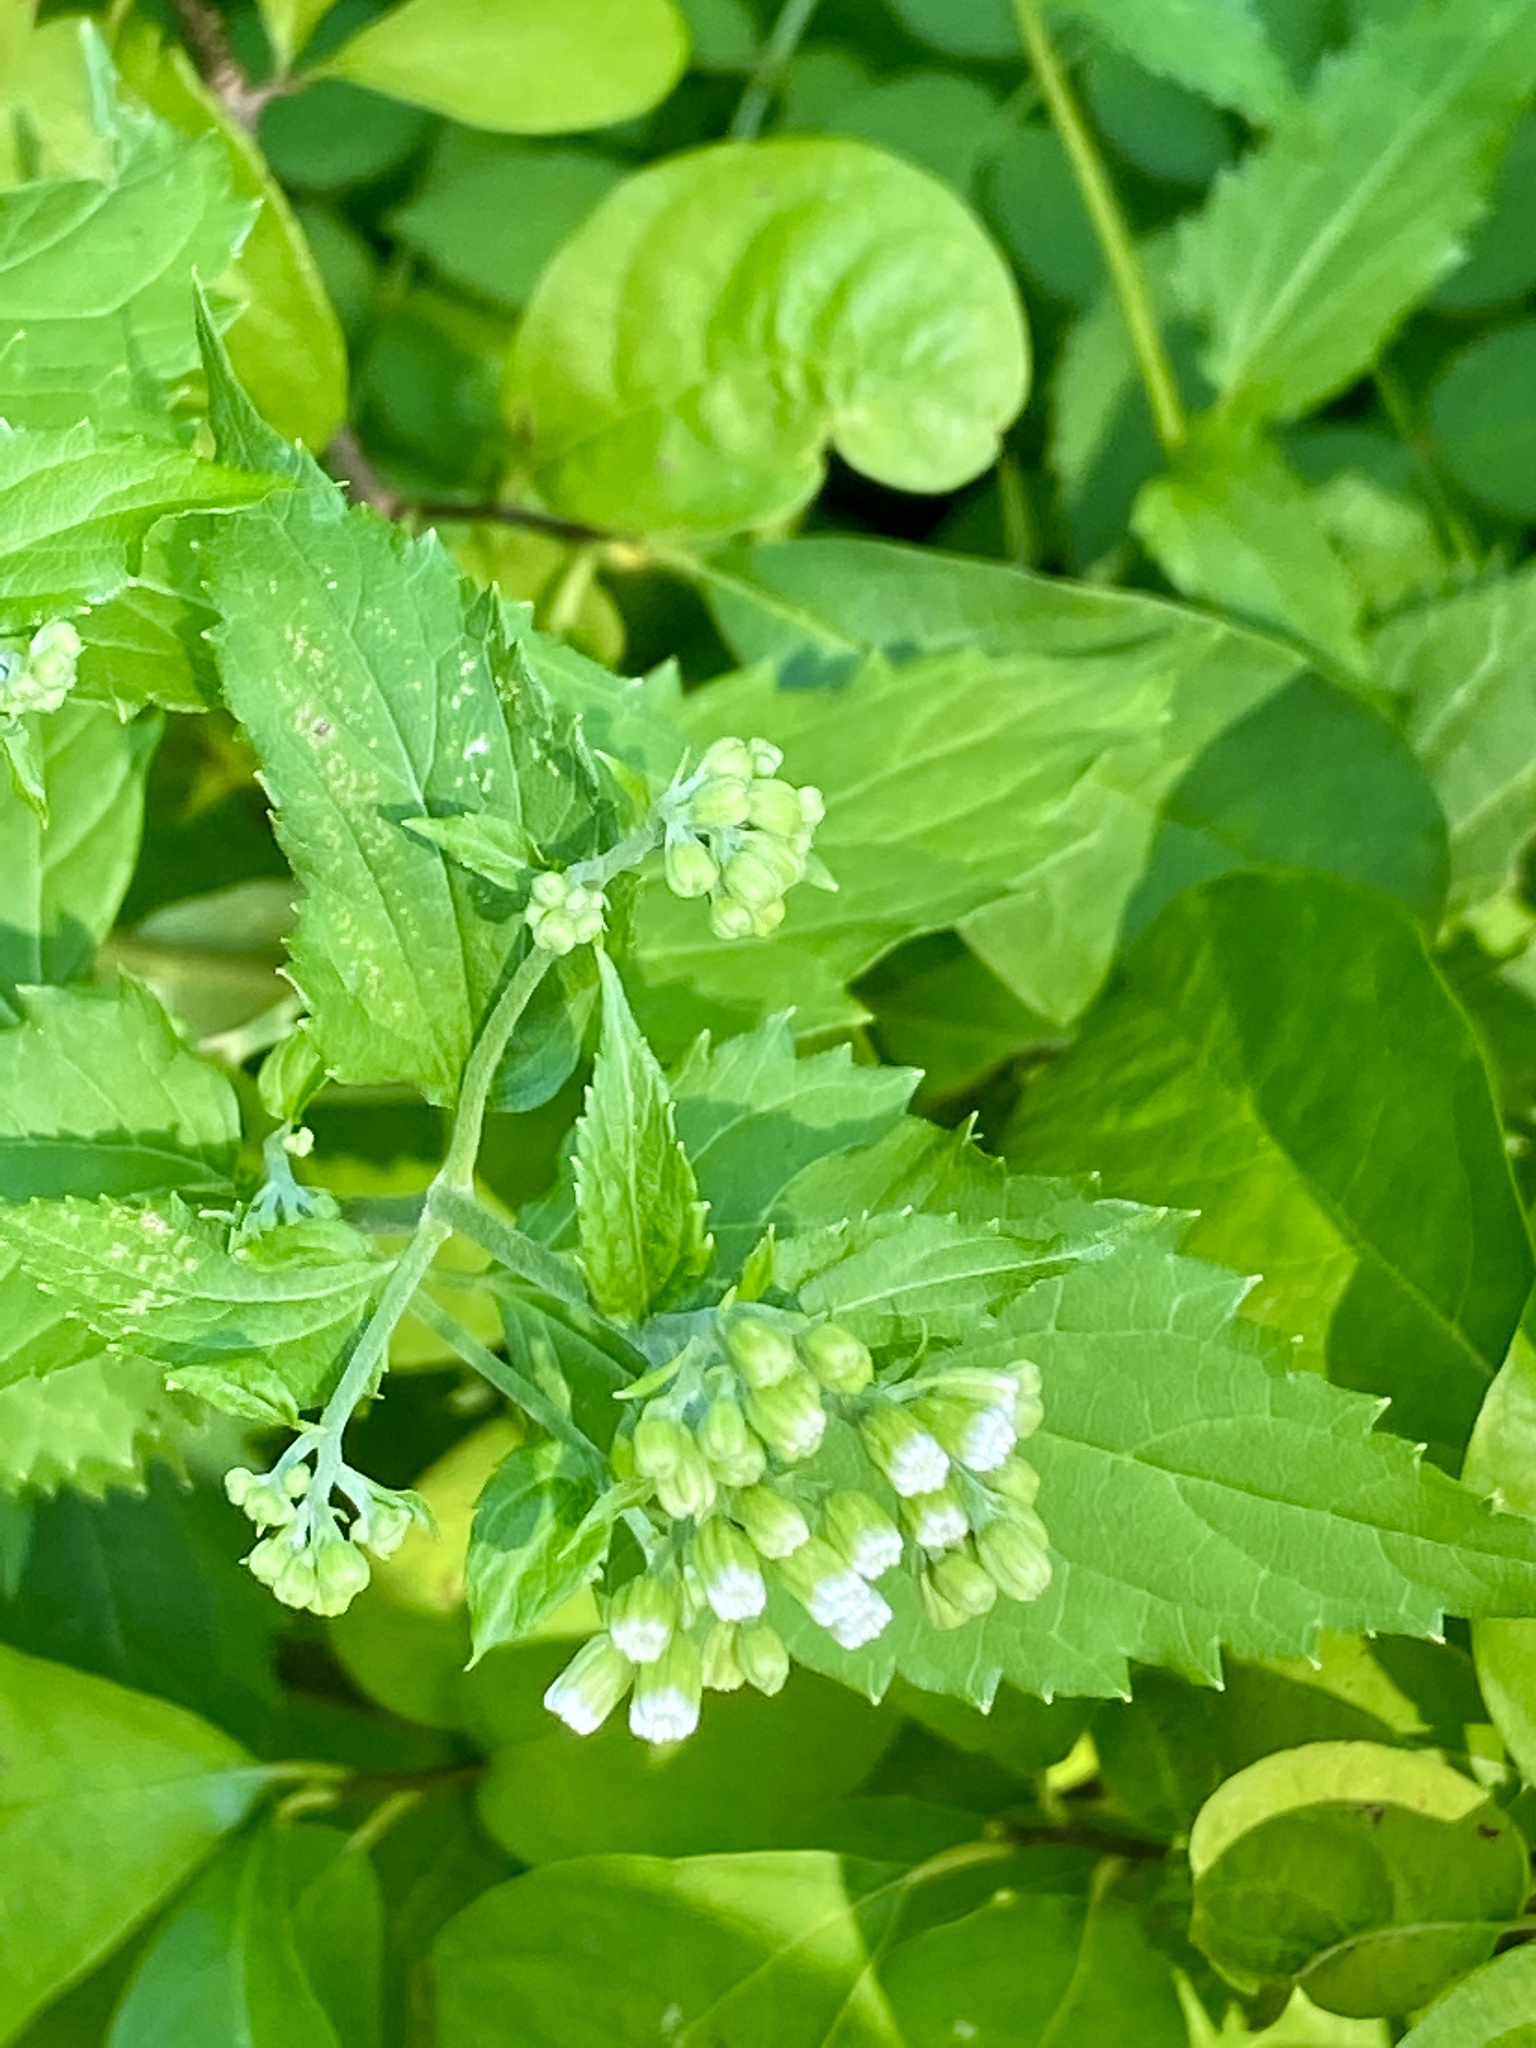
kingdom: Plantae
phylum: Tracheophyta
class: Magnoliopsida
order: Asterales
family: Asteraceae
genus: Ageratina
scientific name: Ageratina altissima
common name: White snakeroot
